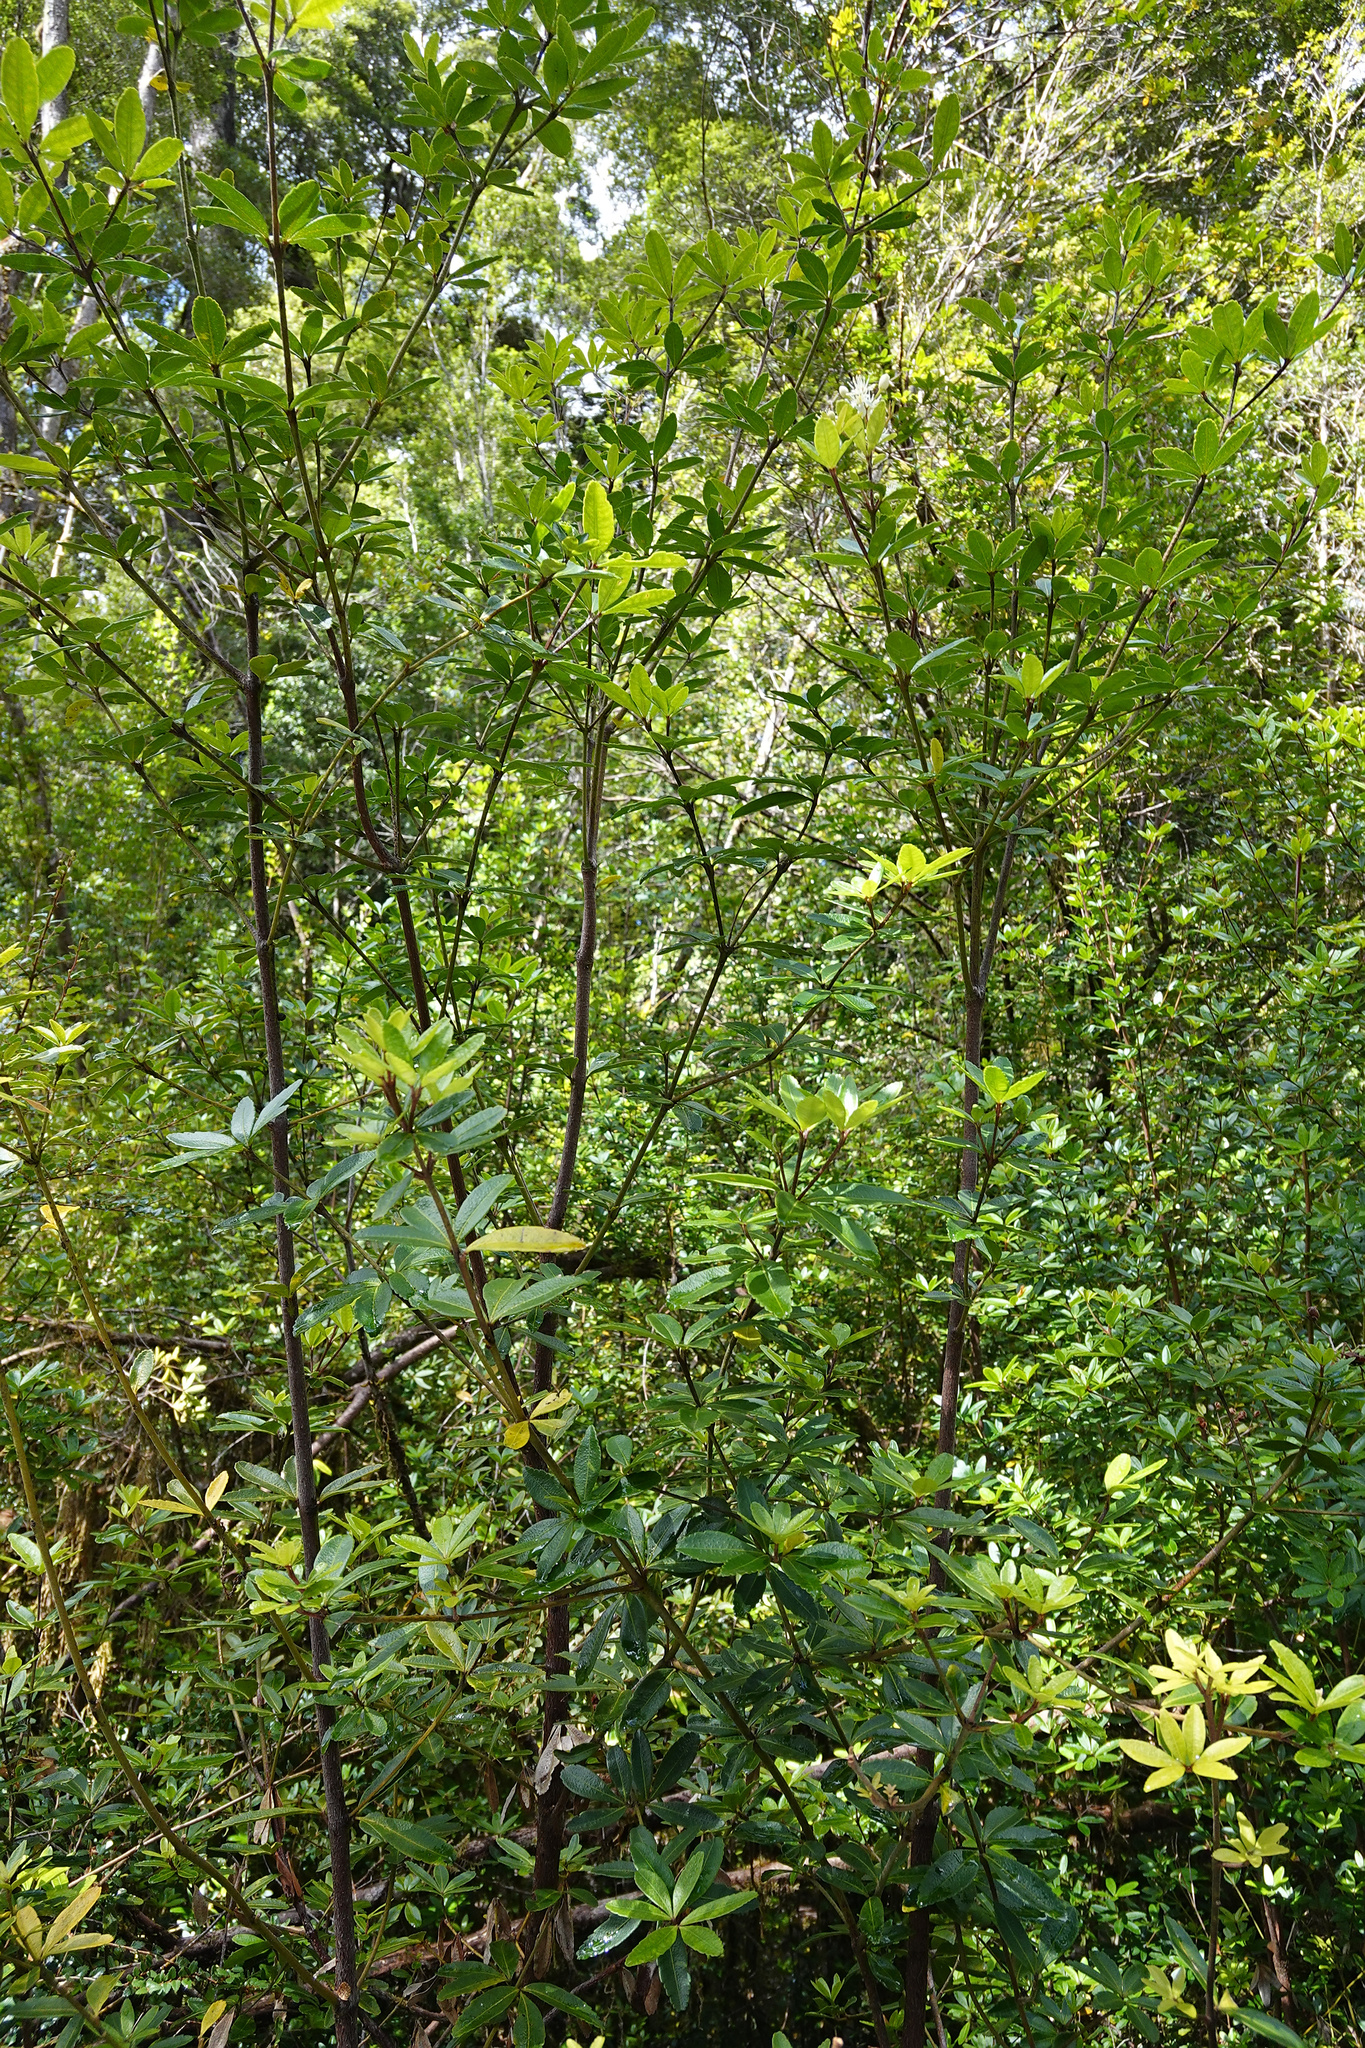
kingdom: Plantae
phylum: Tracheophyta
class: Magnoliopsida
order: Sapindales
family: Rutaceae
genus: Acradenia
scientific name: Acradenia frankliniae
